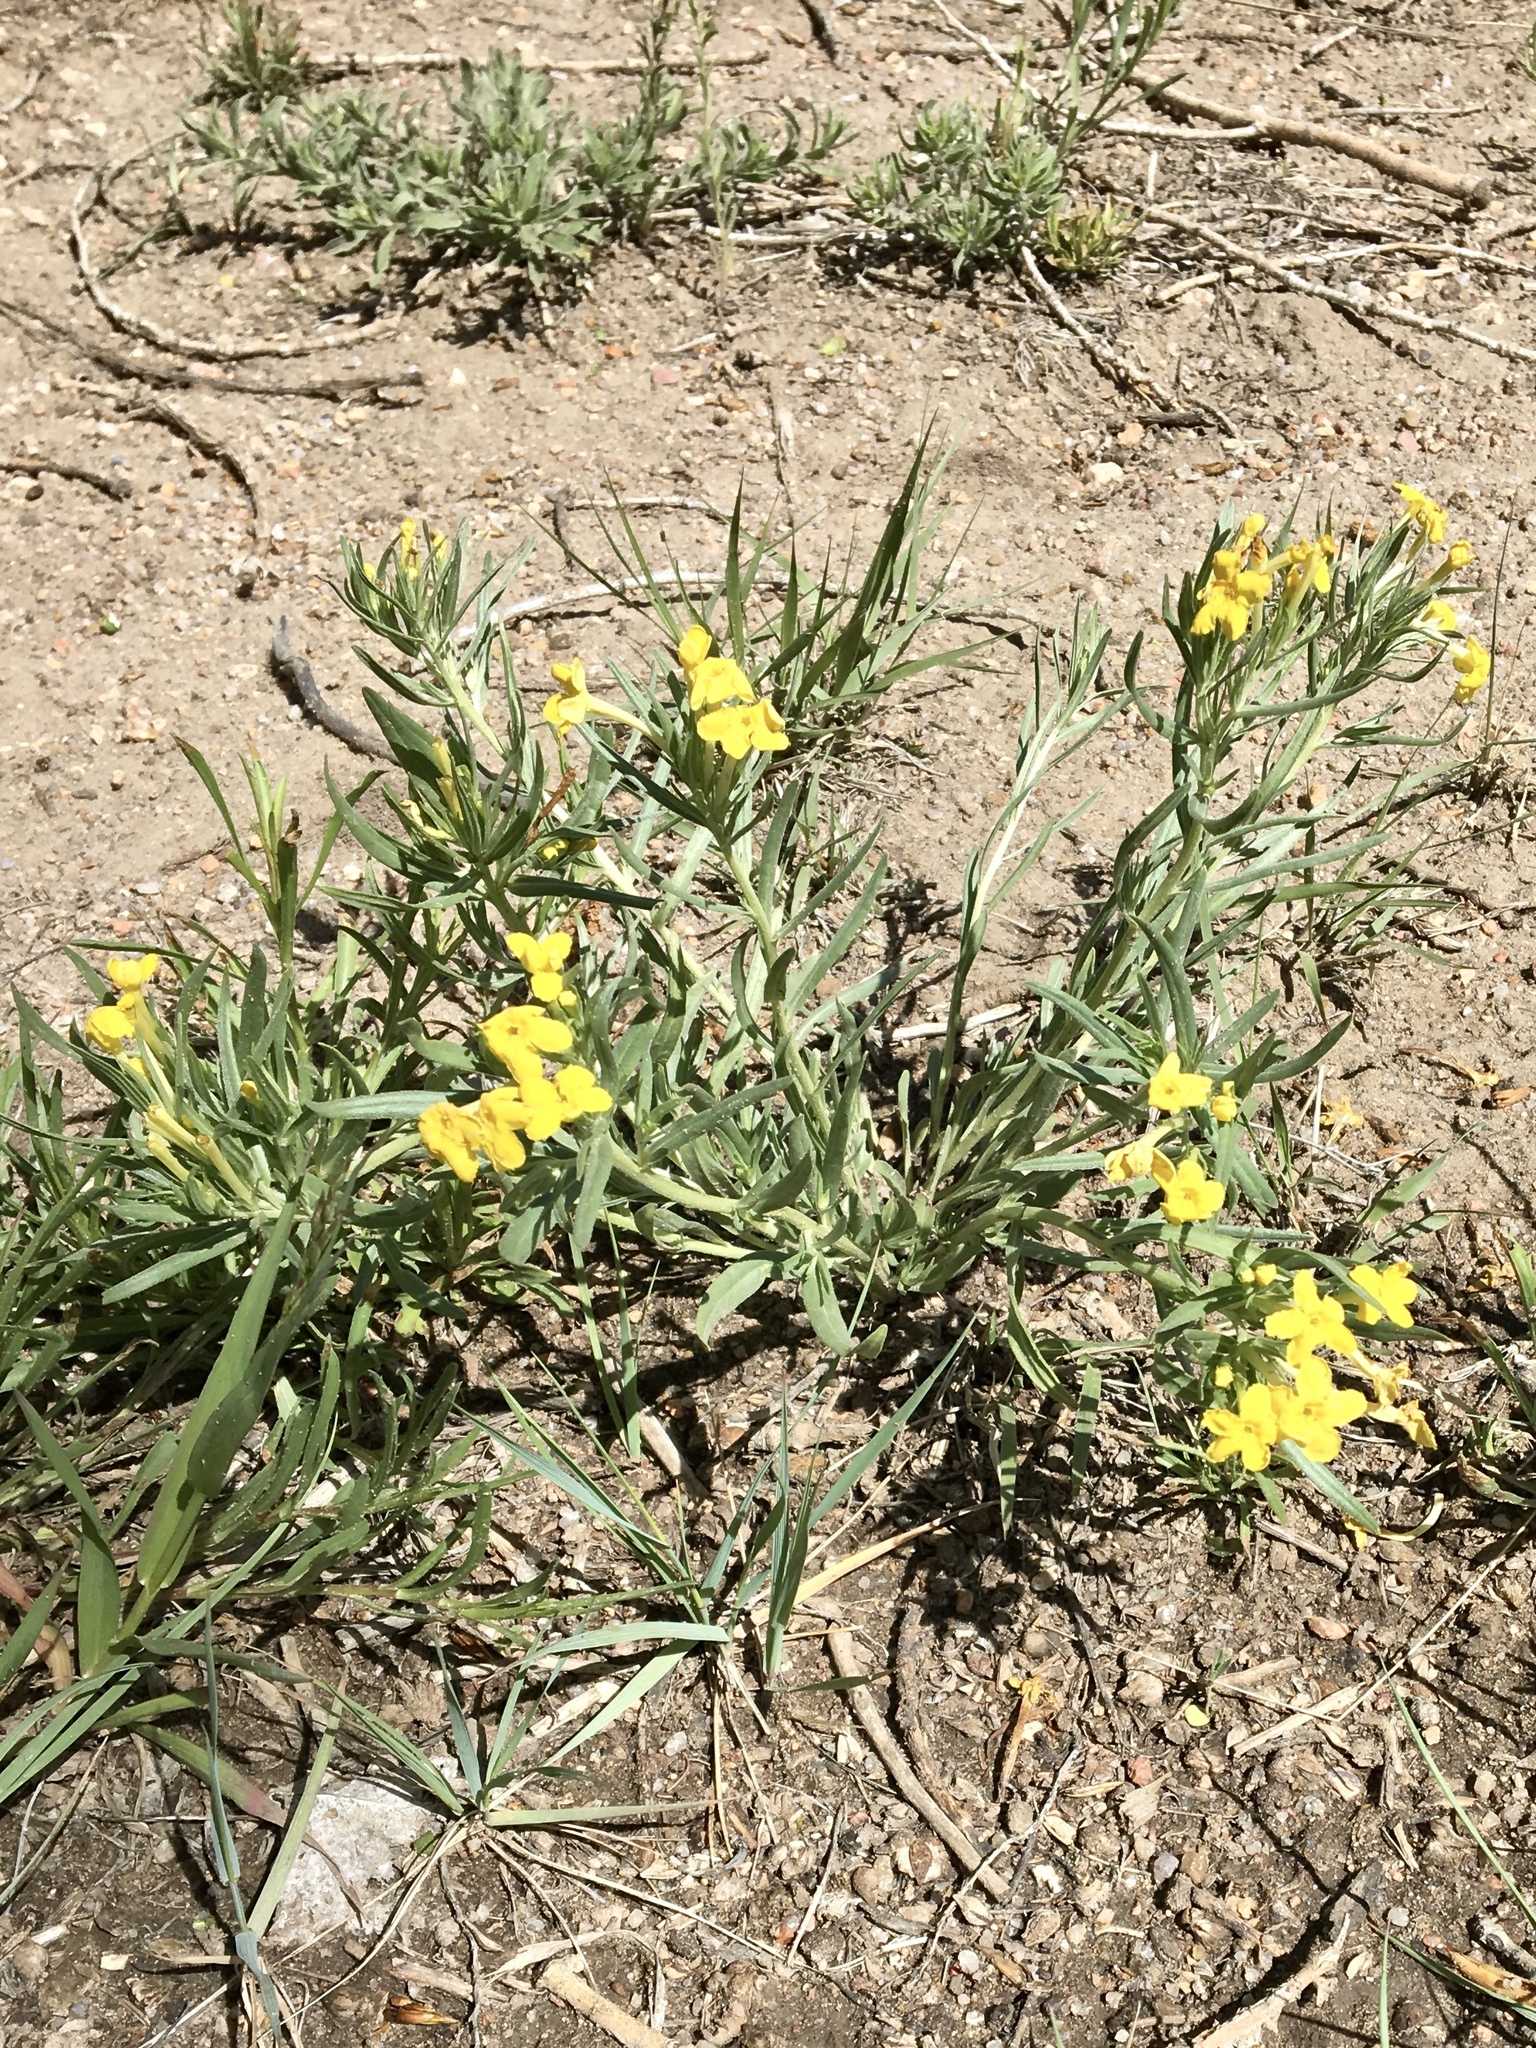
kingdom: Plantae
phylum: Tracheophyta
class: Magnoliopsida
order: Boraginales
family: Boraginaceae
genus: Lithospermum
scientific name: Lithospermum incisum
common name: Fringed gromwell
